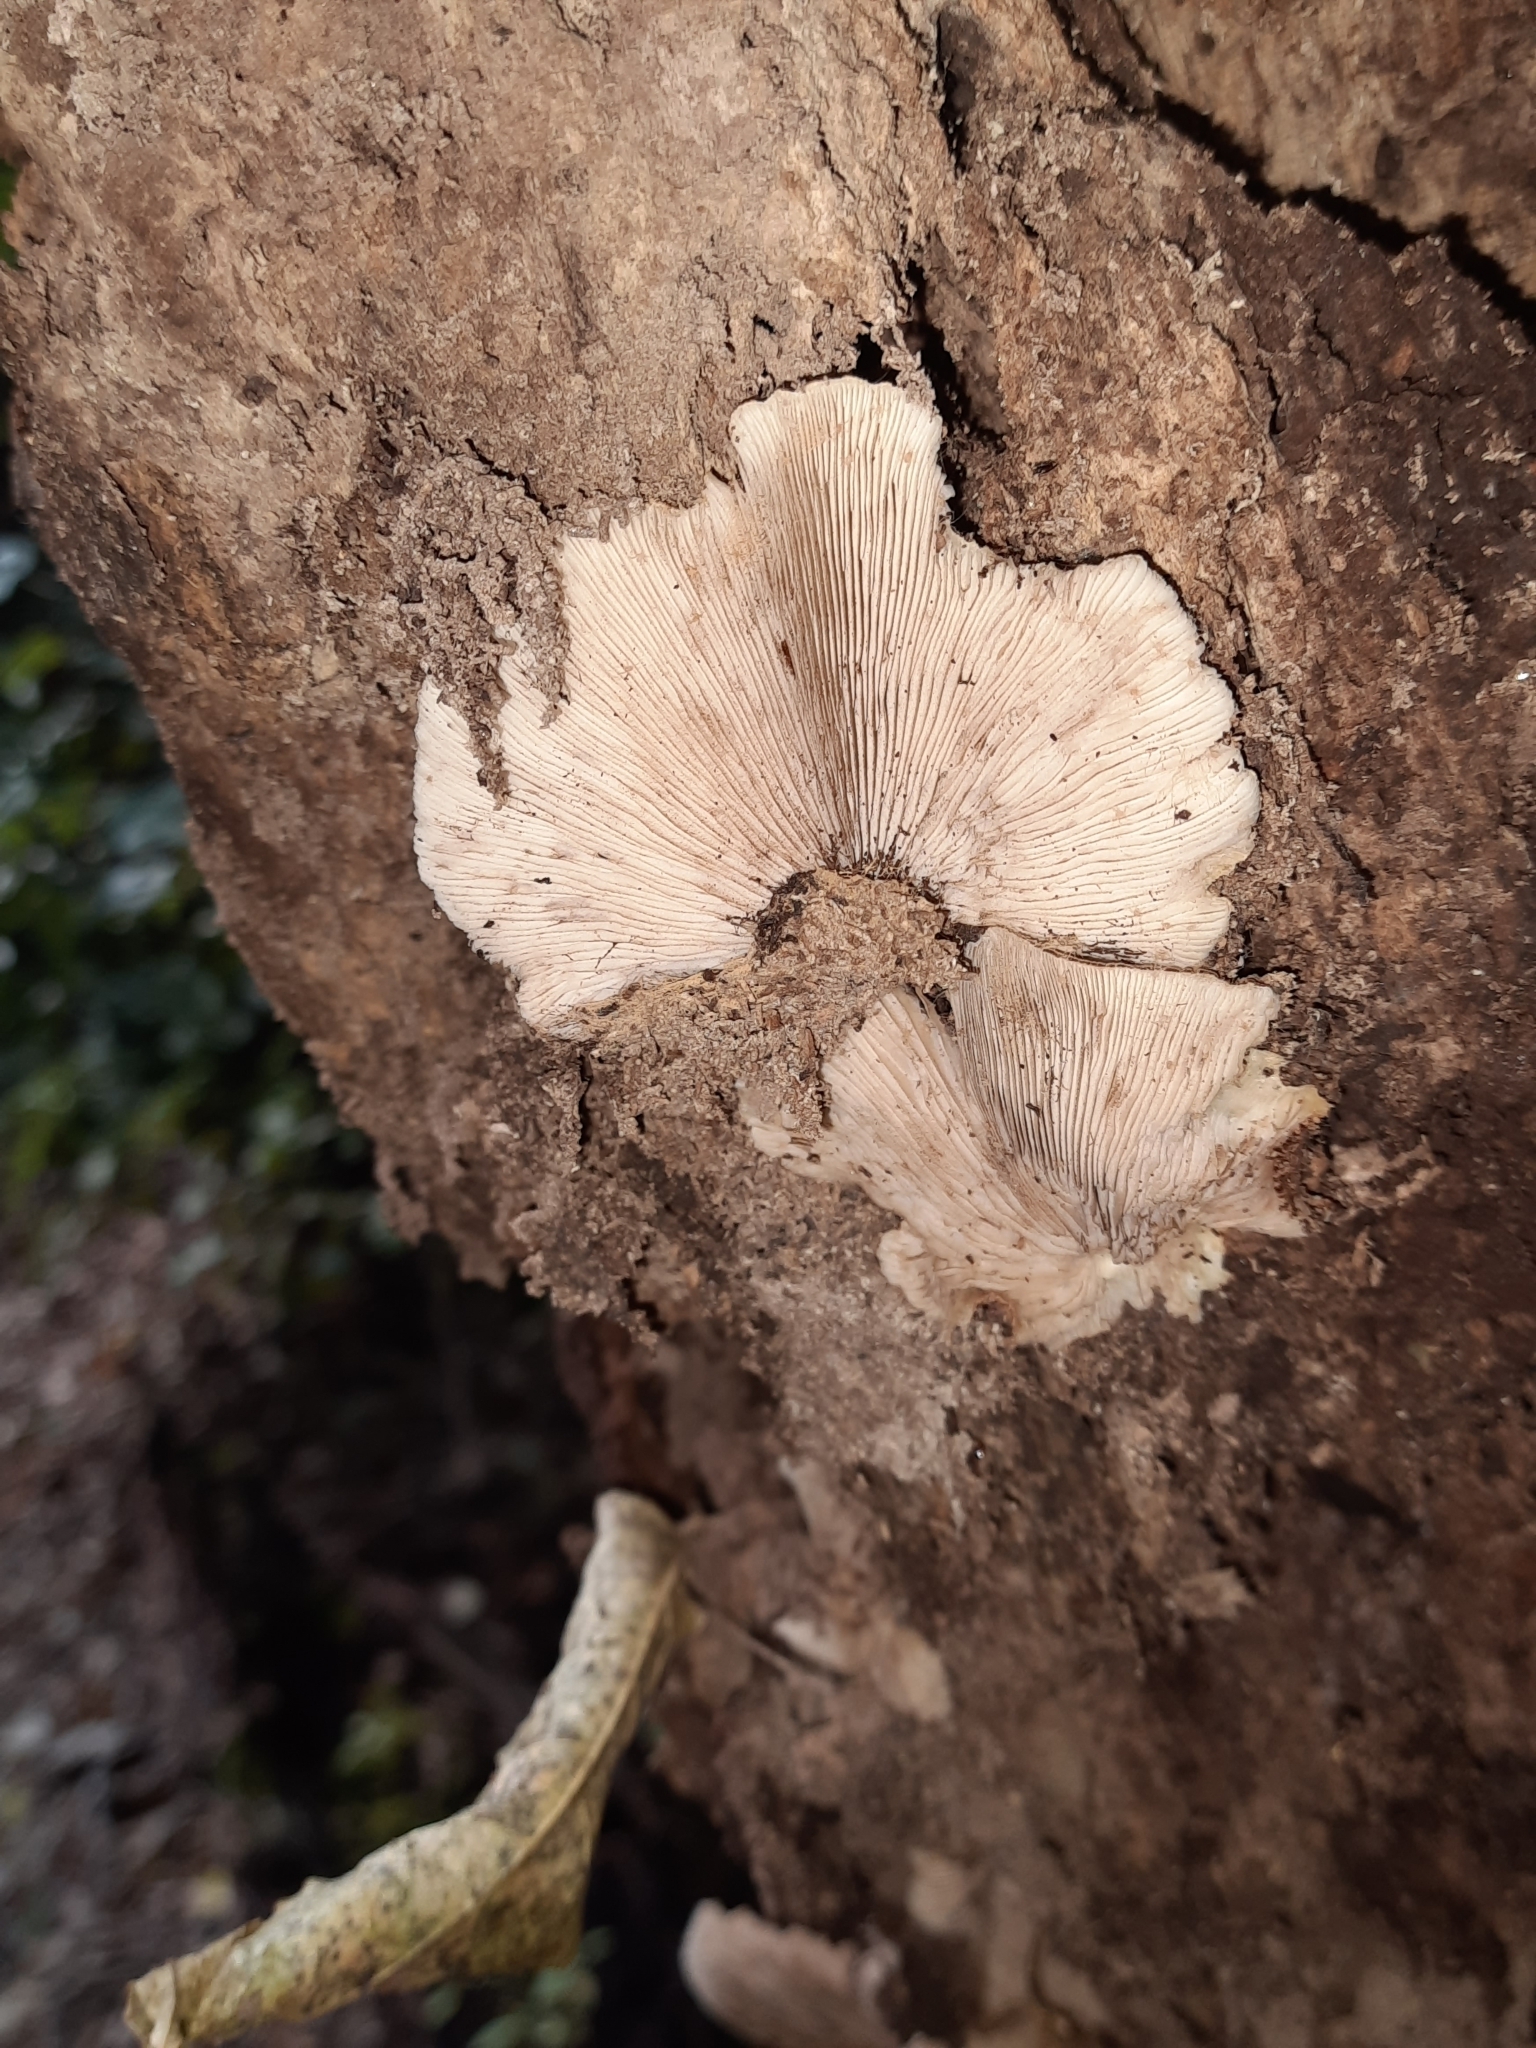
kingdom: Fungi
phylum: Basidiomycota
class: Agaricomycetes
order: Agaricales
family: Crepidotaceae
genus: Crepidotus
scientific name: Crepidotus fuscovelutinus
